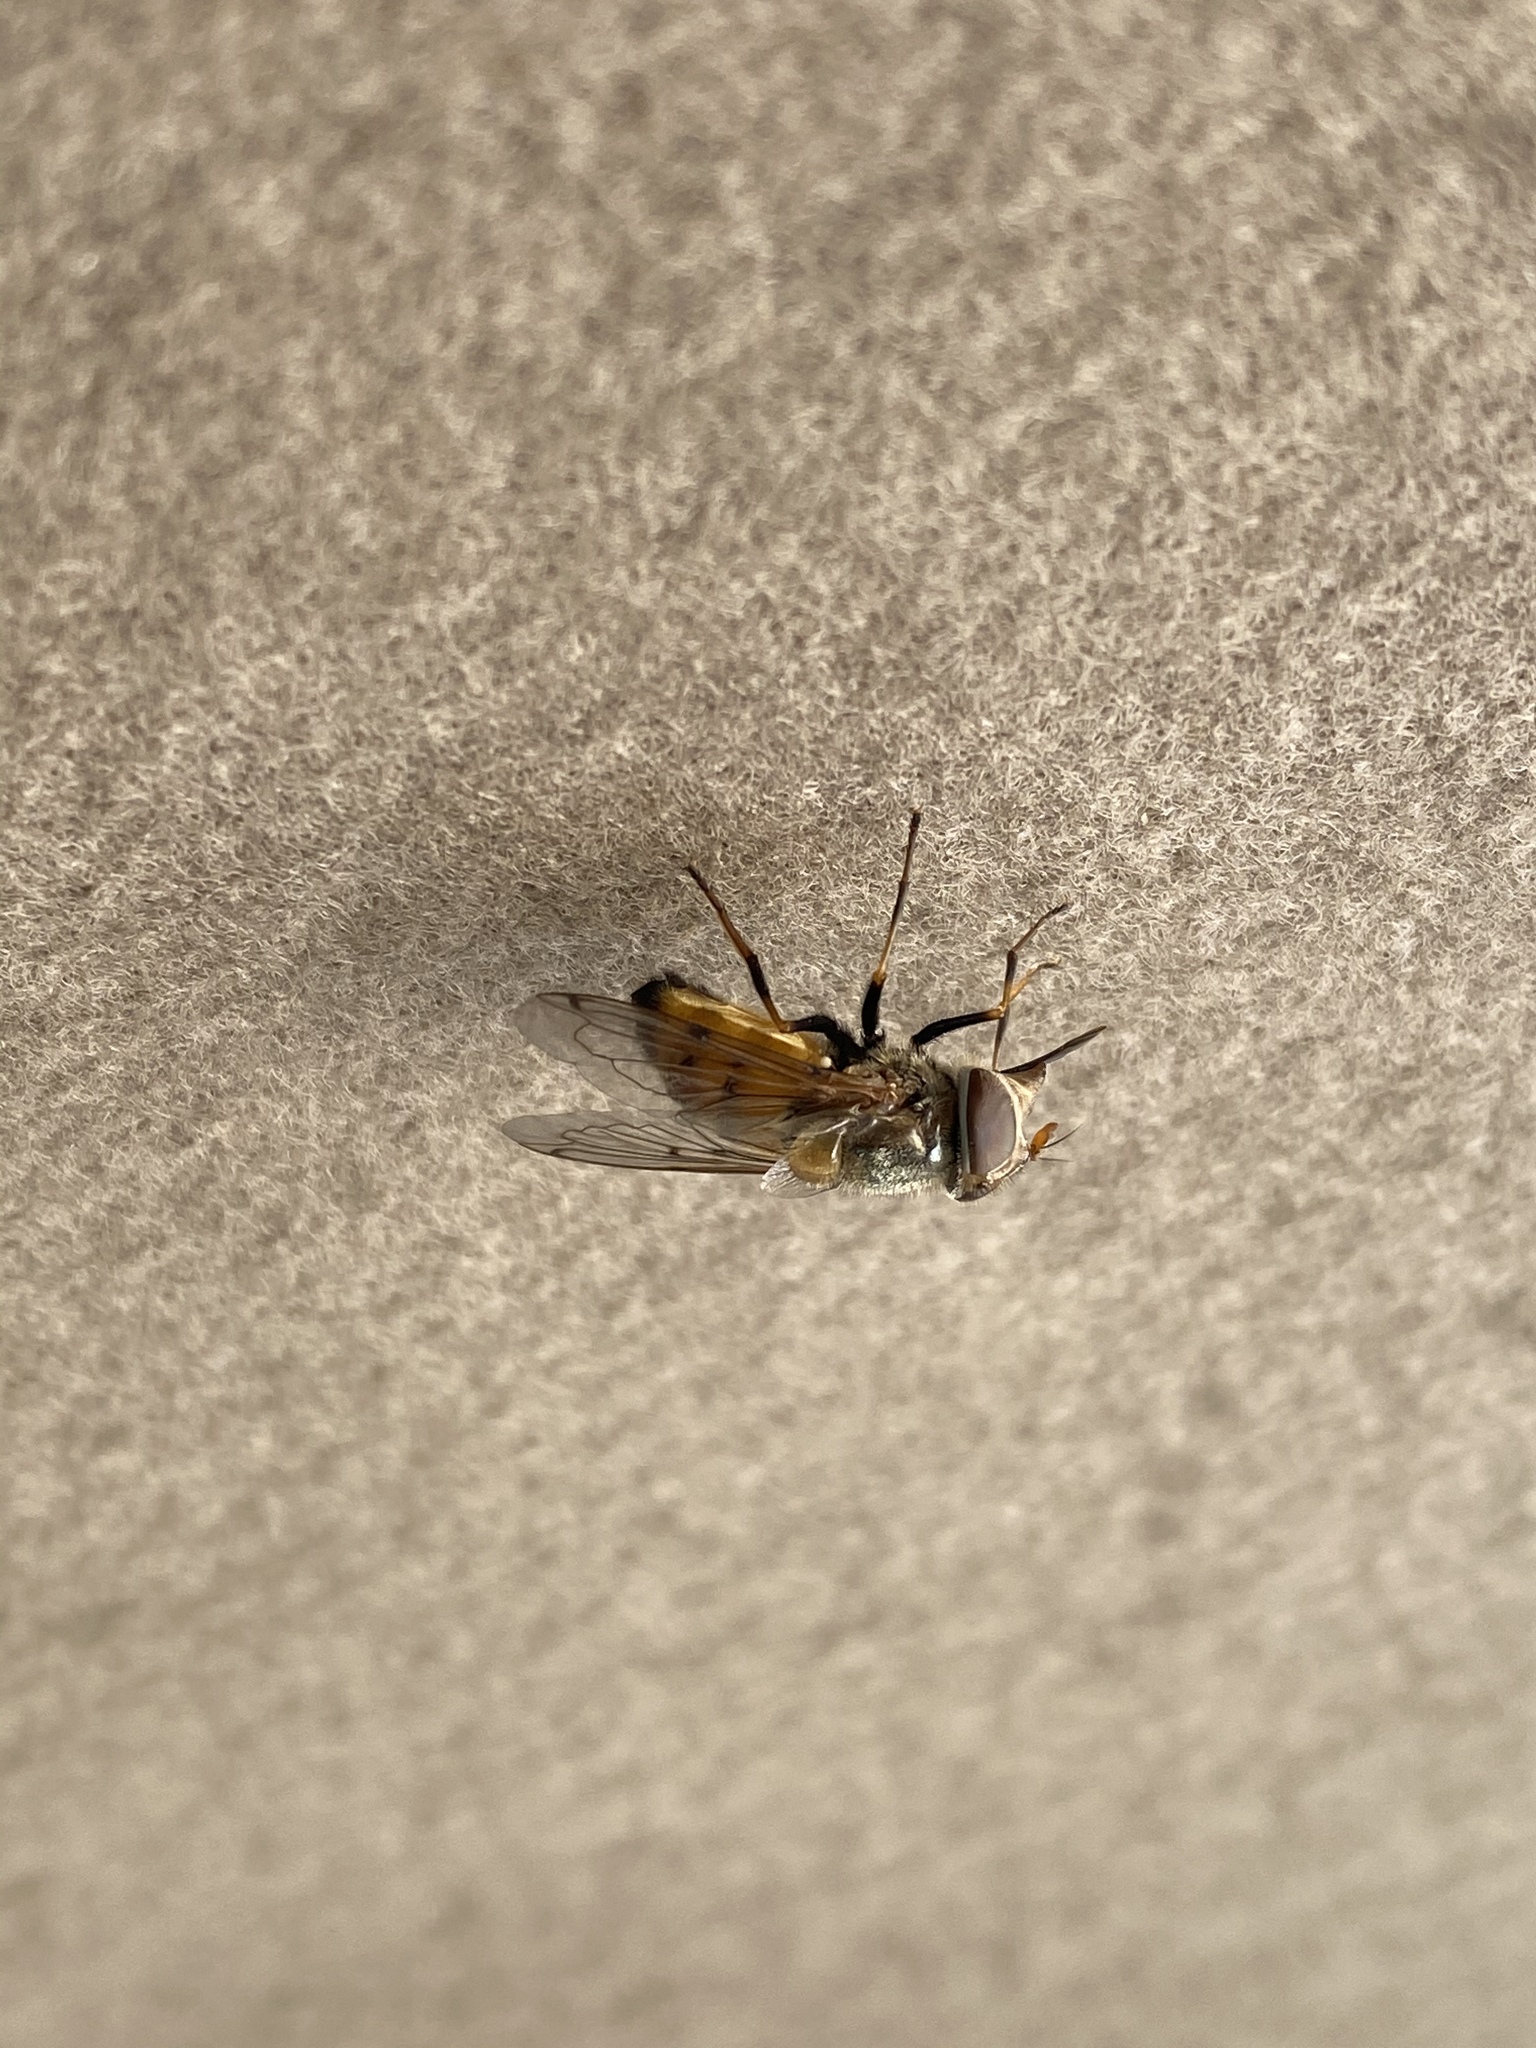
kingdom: Animalia
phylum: Arthropoda
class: Insecta
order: Diptera
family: Syrphidae
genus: Copestylum
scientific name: Copestylum haagii
